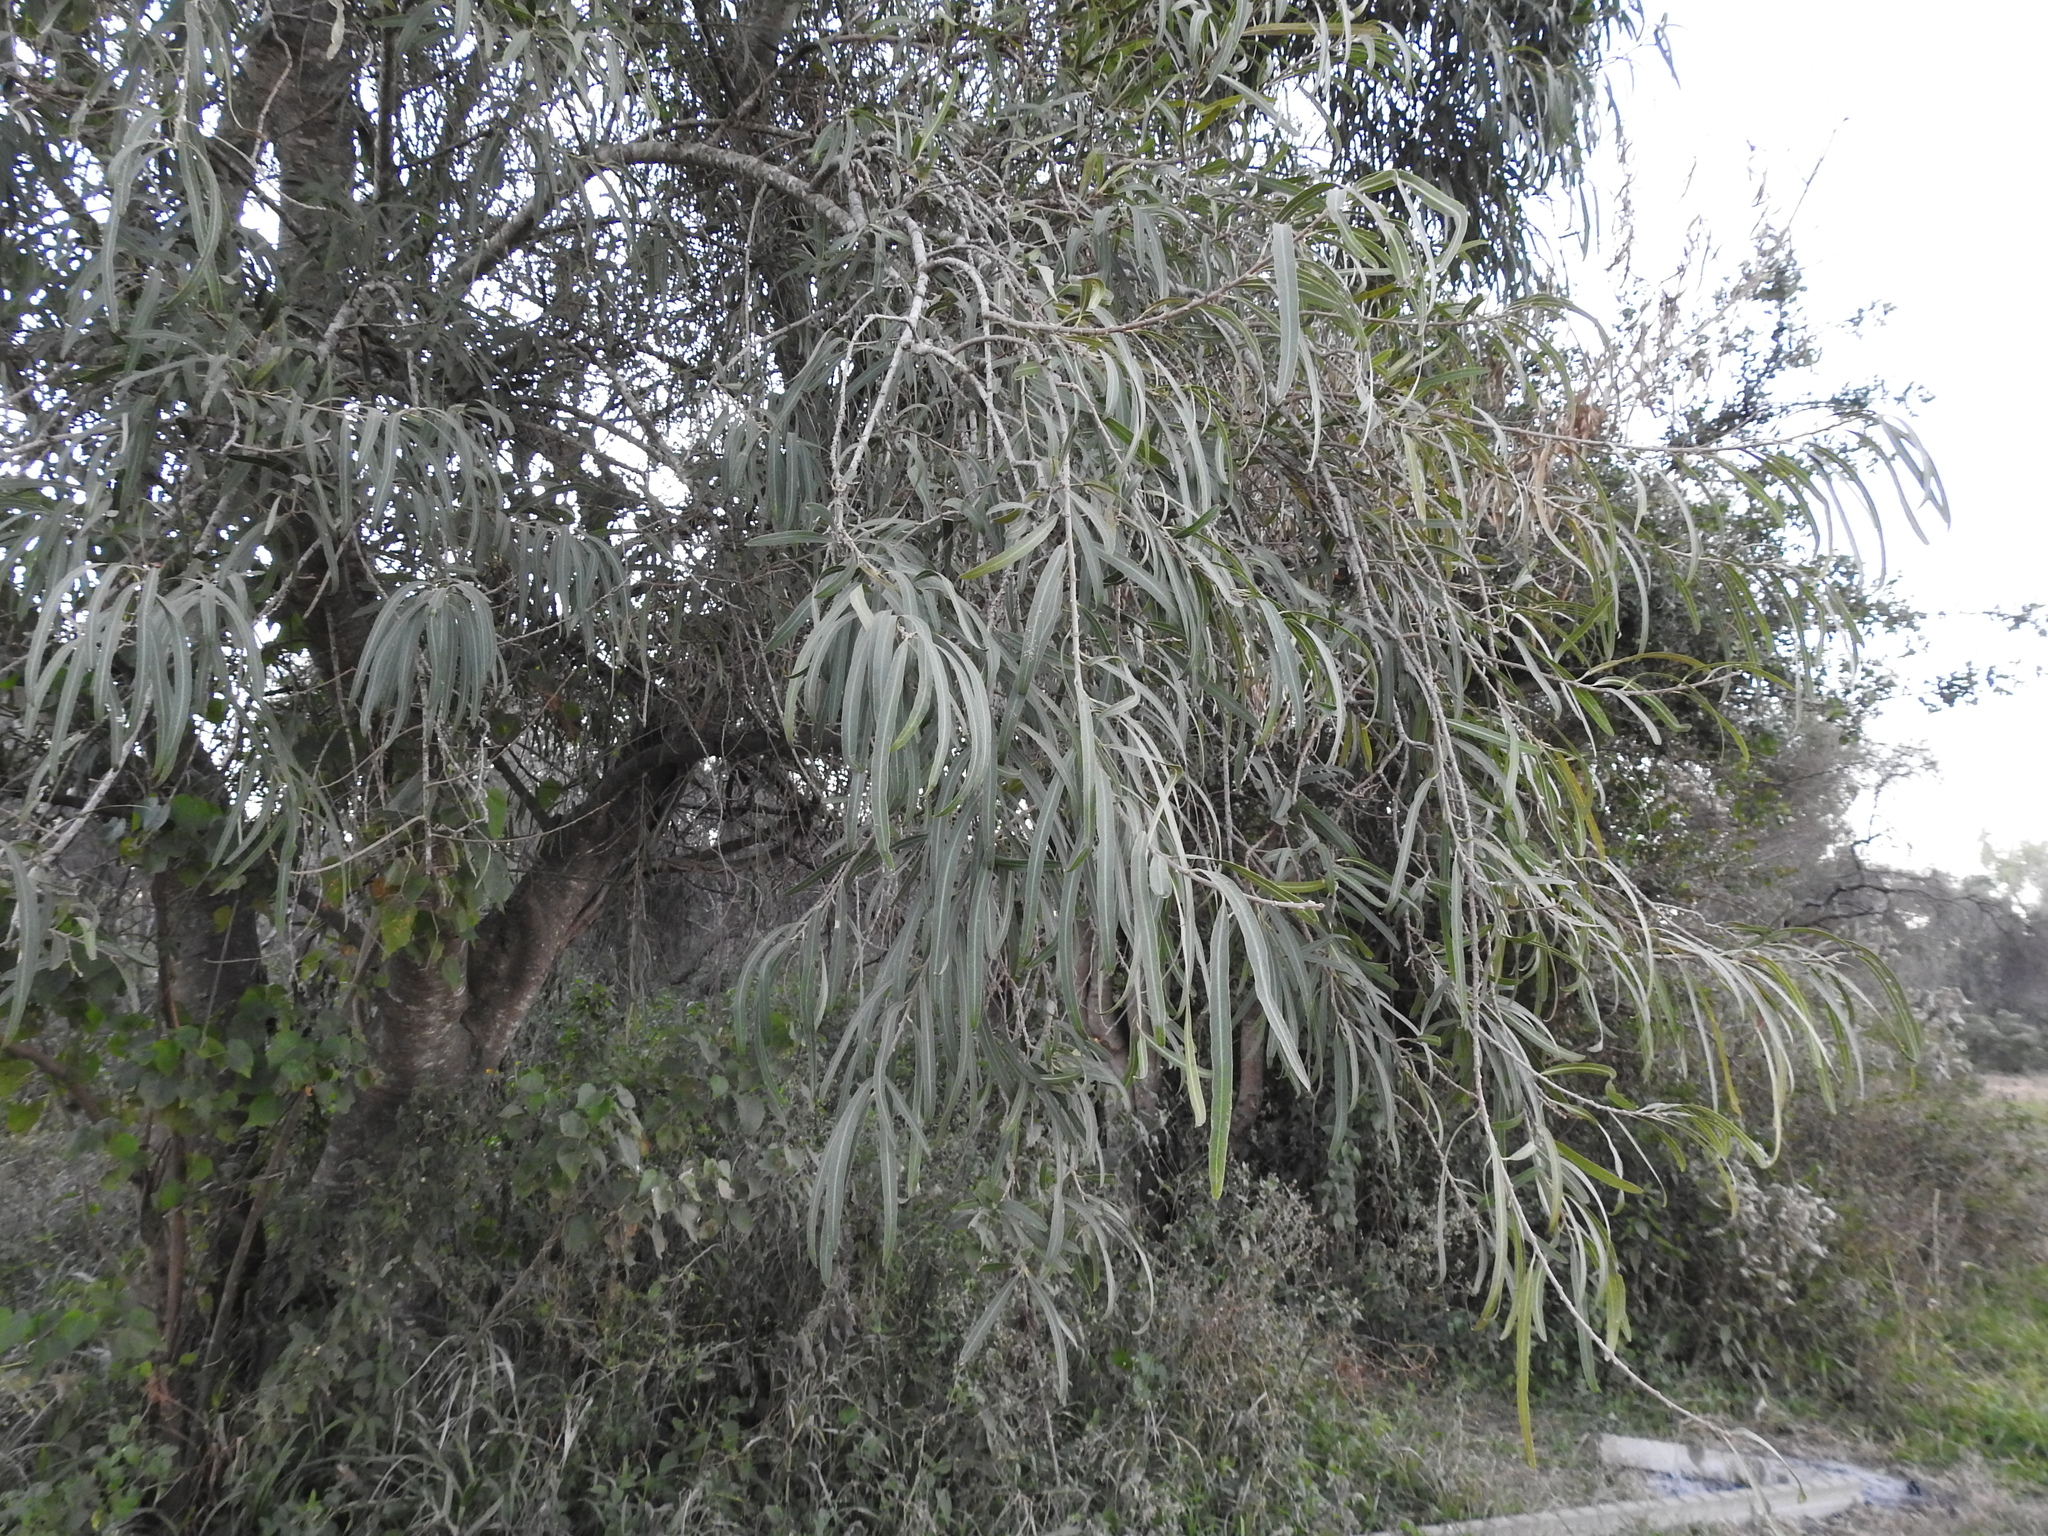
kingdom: Plantae
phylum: Tracheophyta
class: Magnoliopsida
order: Malpighiales
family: Euphorbiaceae
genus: Sapium
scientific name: Sapium haematospermum
